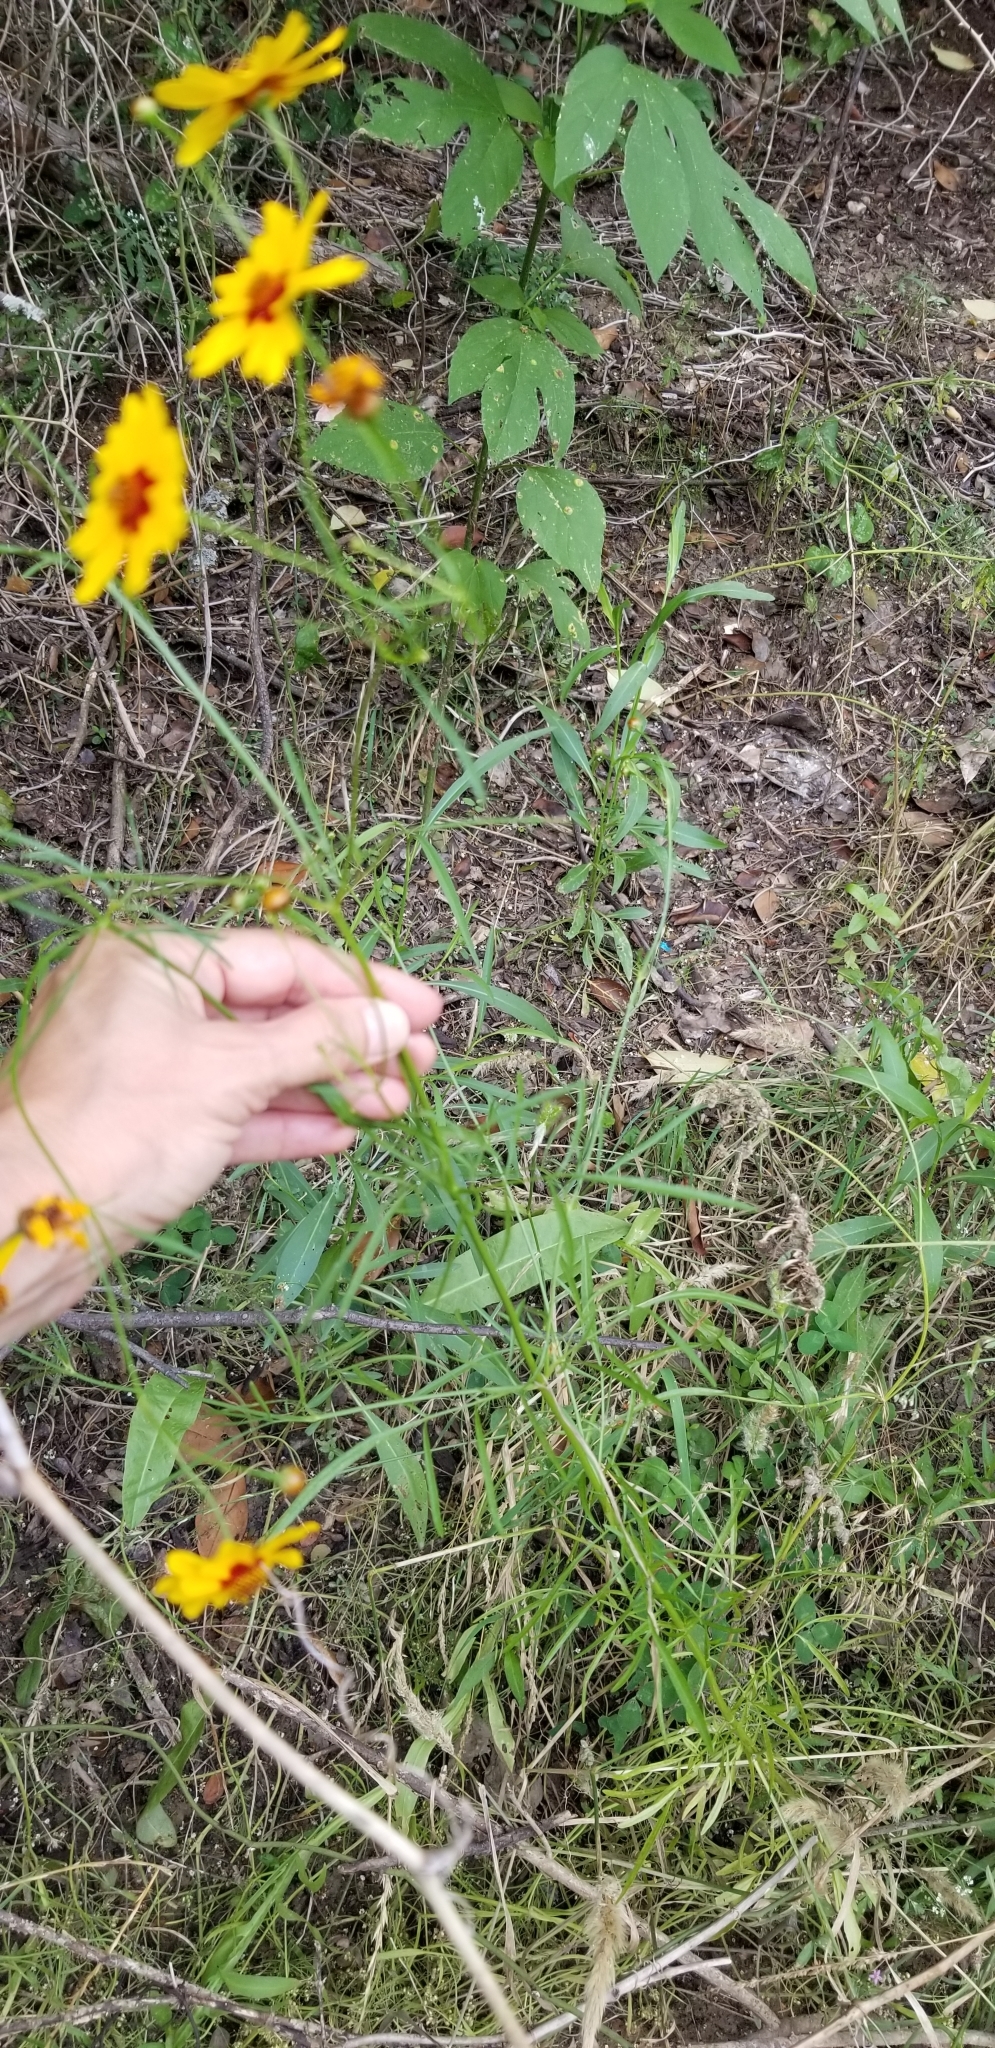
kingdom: Plantae
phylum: Tracheophyta
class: Magnoliopsida
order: Asterales
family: Asteraceae
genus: Coreopsis
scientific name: Coreopsis tinctoria
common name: Garden tickseed
